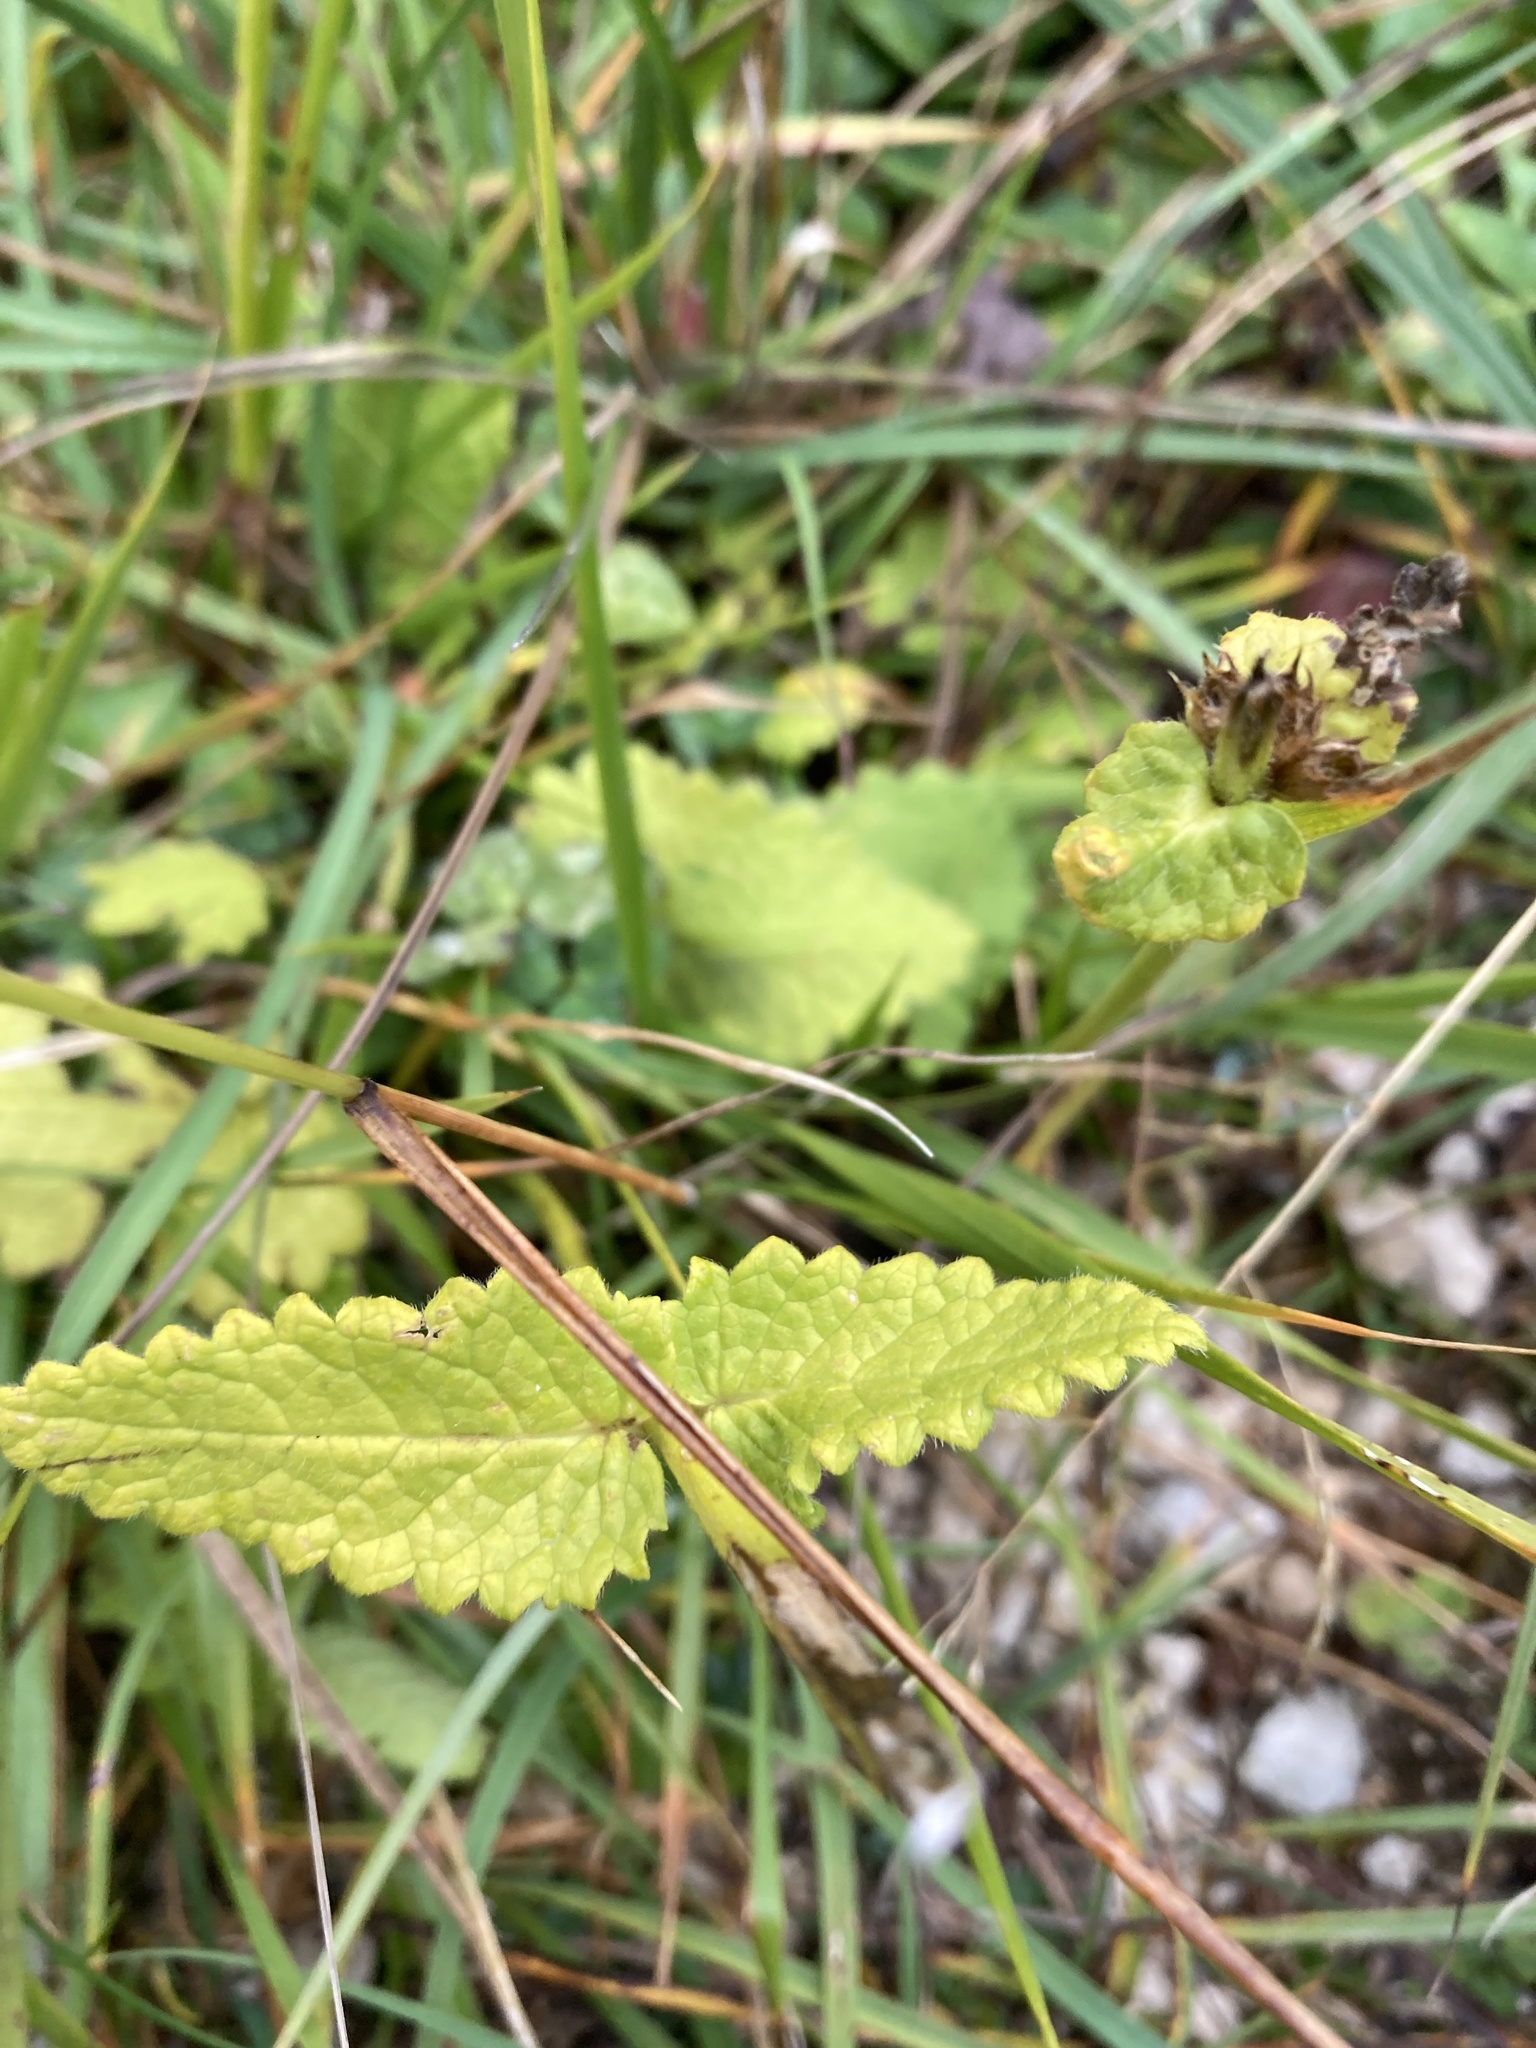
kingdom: Plantae
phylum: Tracheophyta
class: Magnoliopsida
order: Lamiales
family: Lamiaceae
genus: Betonica
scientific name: Betonica alopecuros
